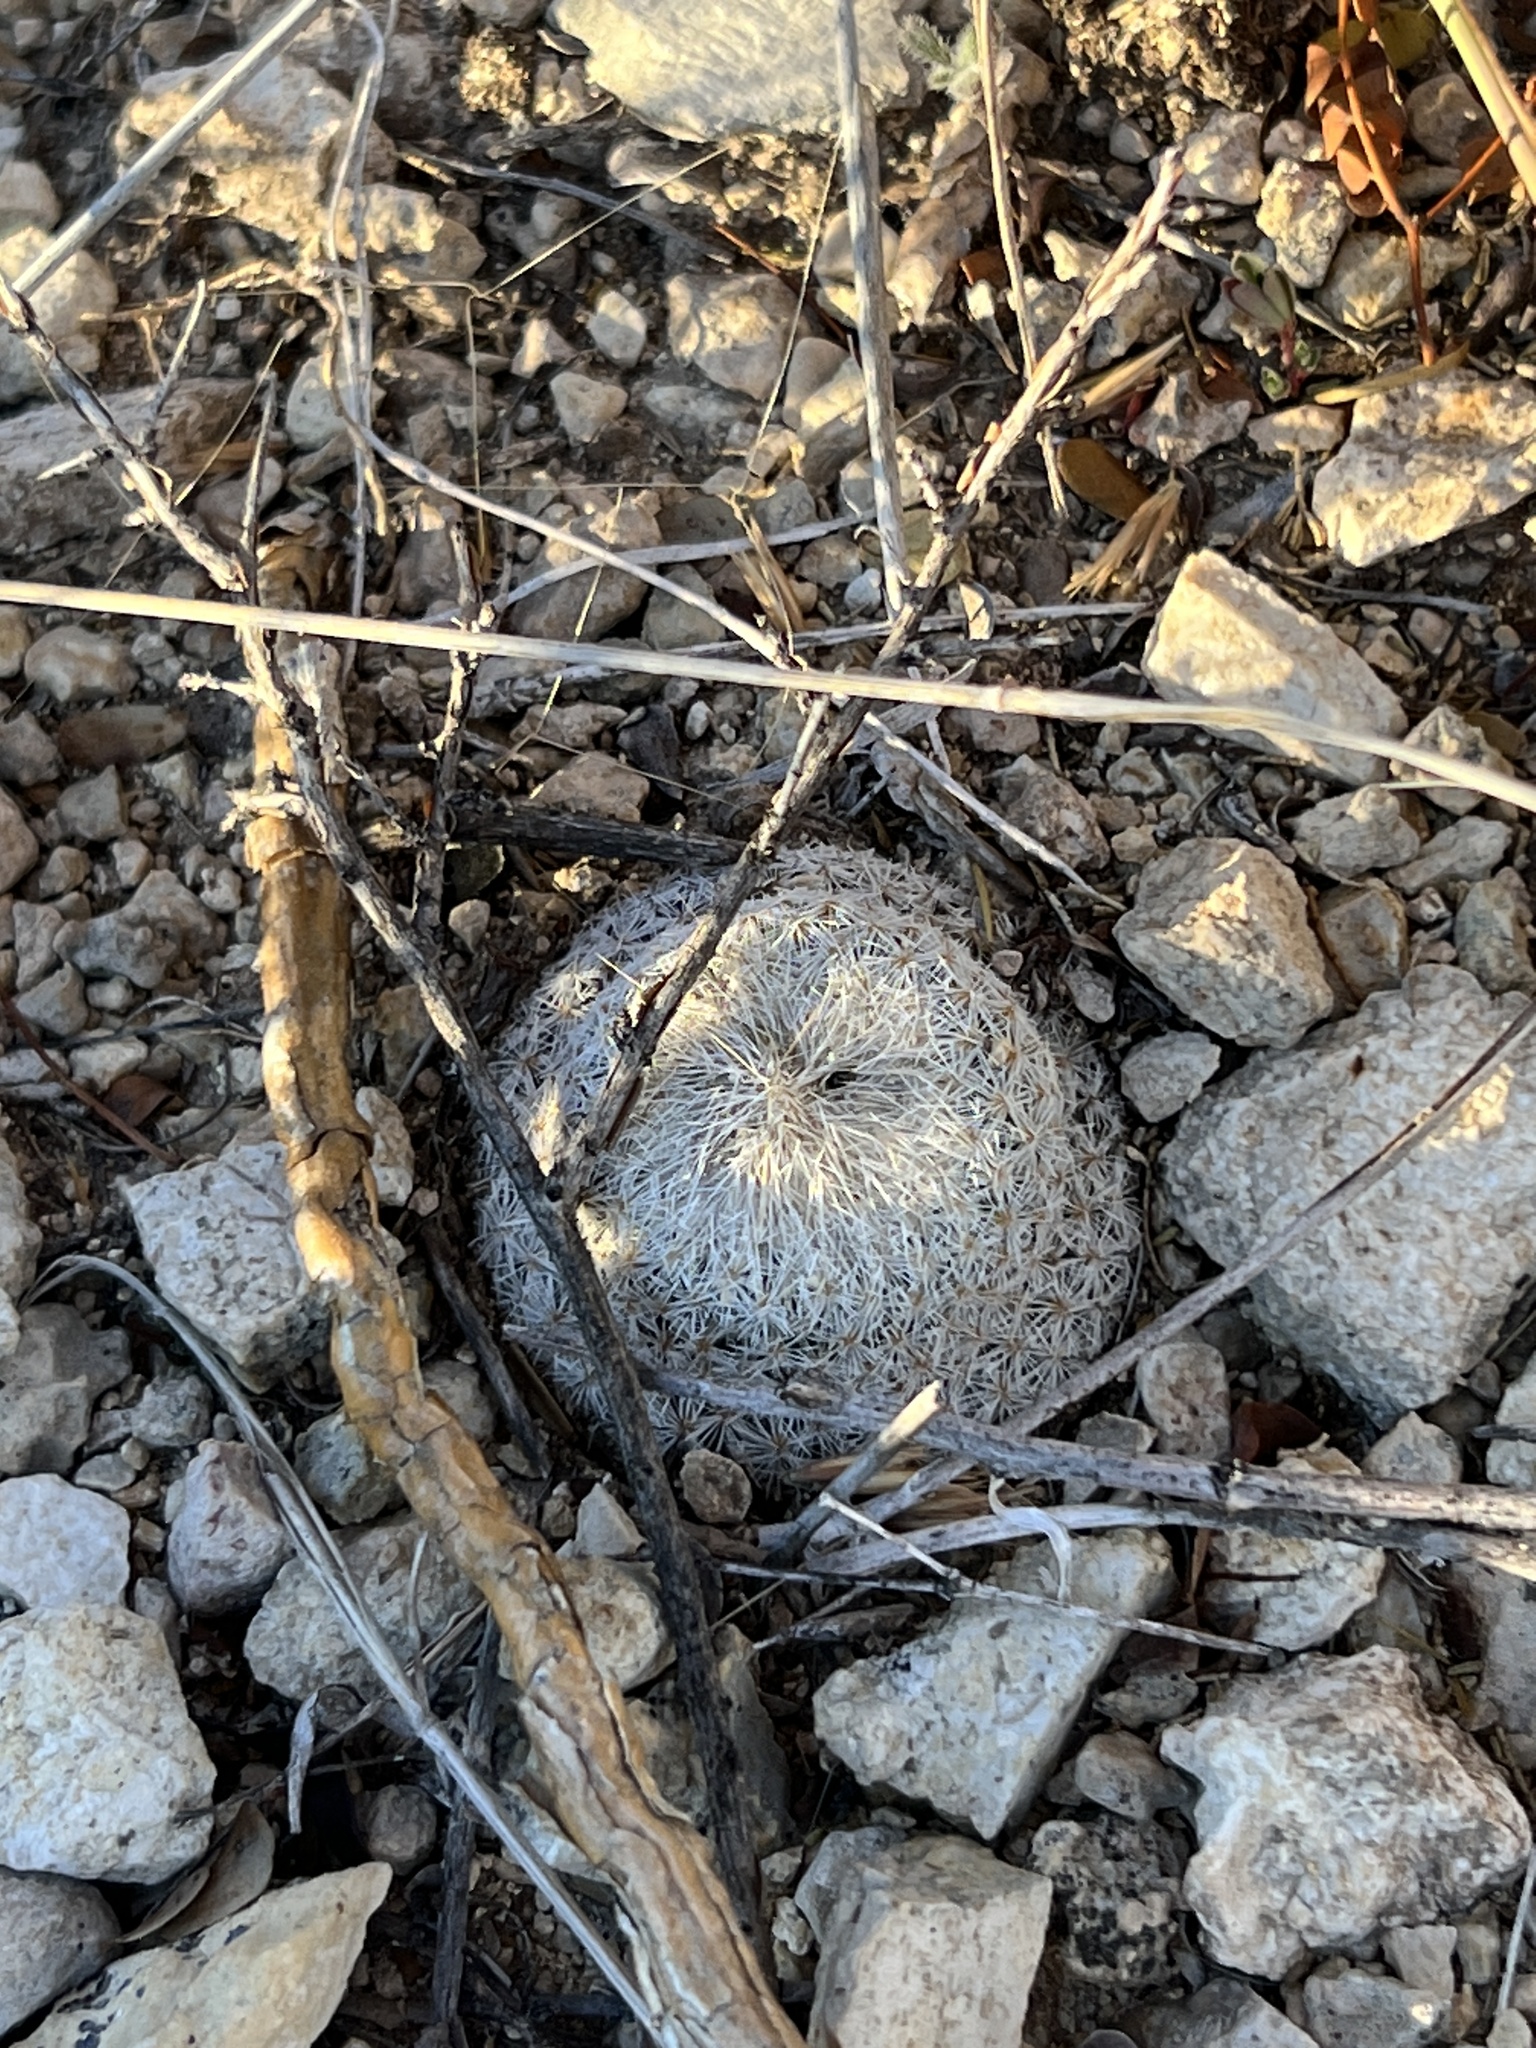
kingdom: Plantae
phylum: Tracheophyta
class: Magnoliopsida
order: Caryophyllales
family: Cactaceae
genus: Epithelantha
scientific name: Epithelantha micromeris
